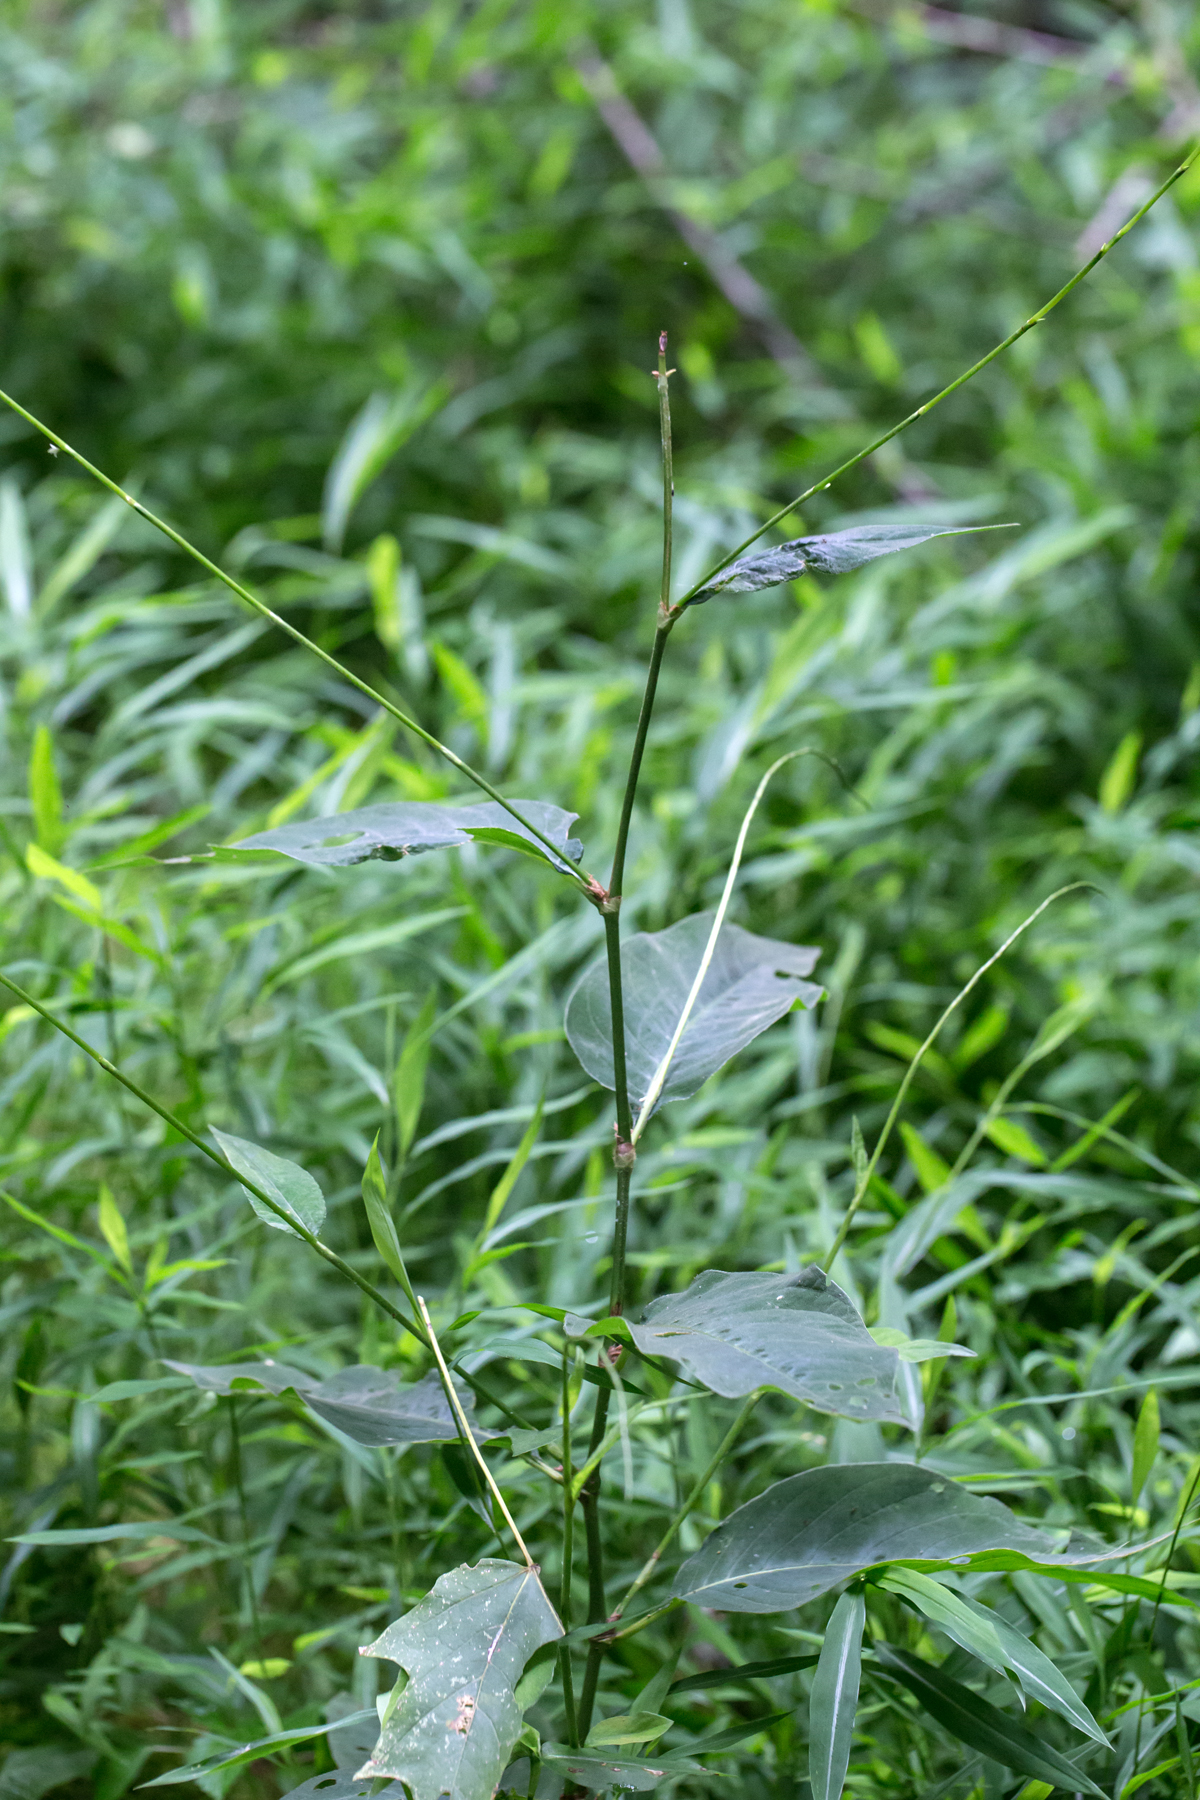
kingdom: Plantae
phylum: Tracheophyta
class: Magnoliopsida
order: Caryophyllales
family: Polygonaceae
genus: Persicaria
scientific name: Persicaria virginiana
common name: Jumpseed
